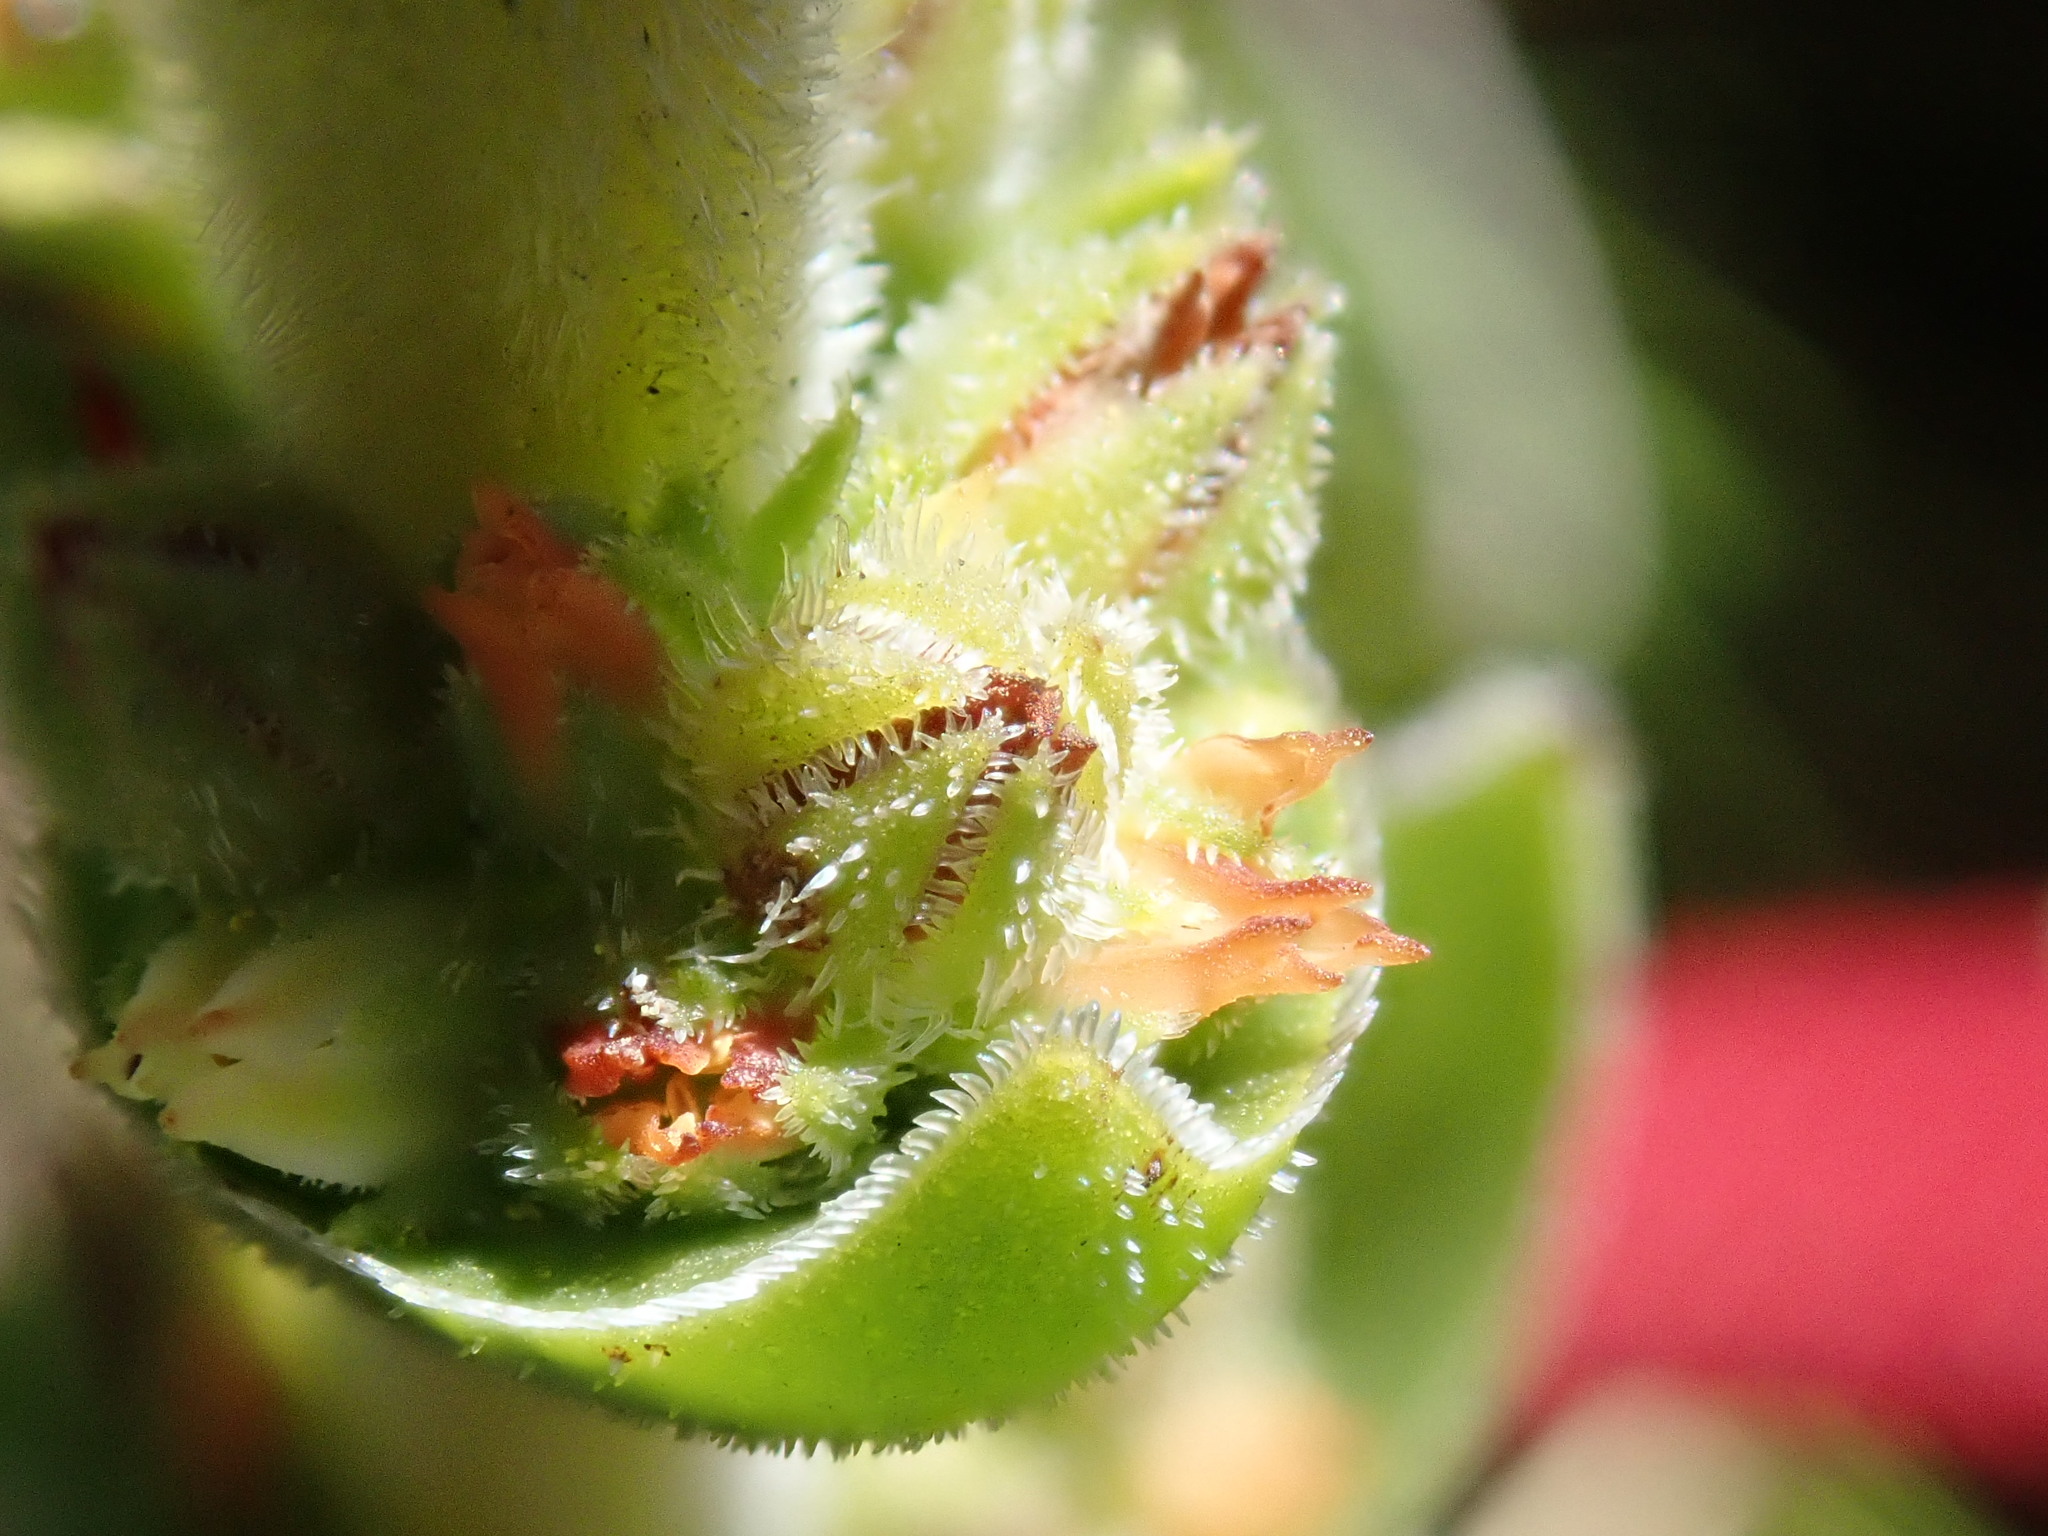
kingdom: Plantae
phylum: Tracheophyta
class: Magnoliopsida
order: Saxifragales
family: Crassulaceae
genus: Crassula
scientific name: Crassula nodulosa
